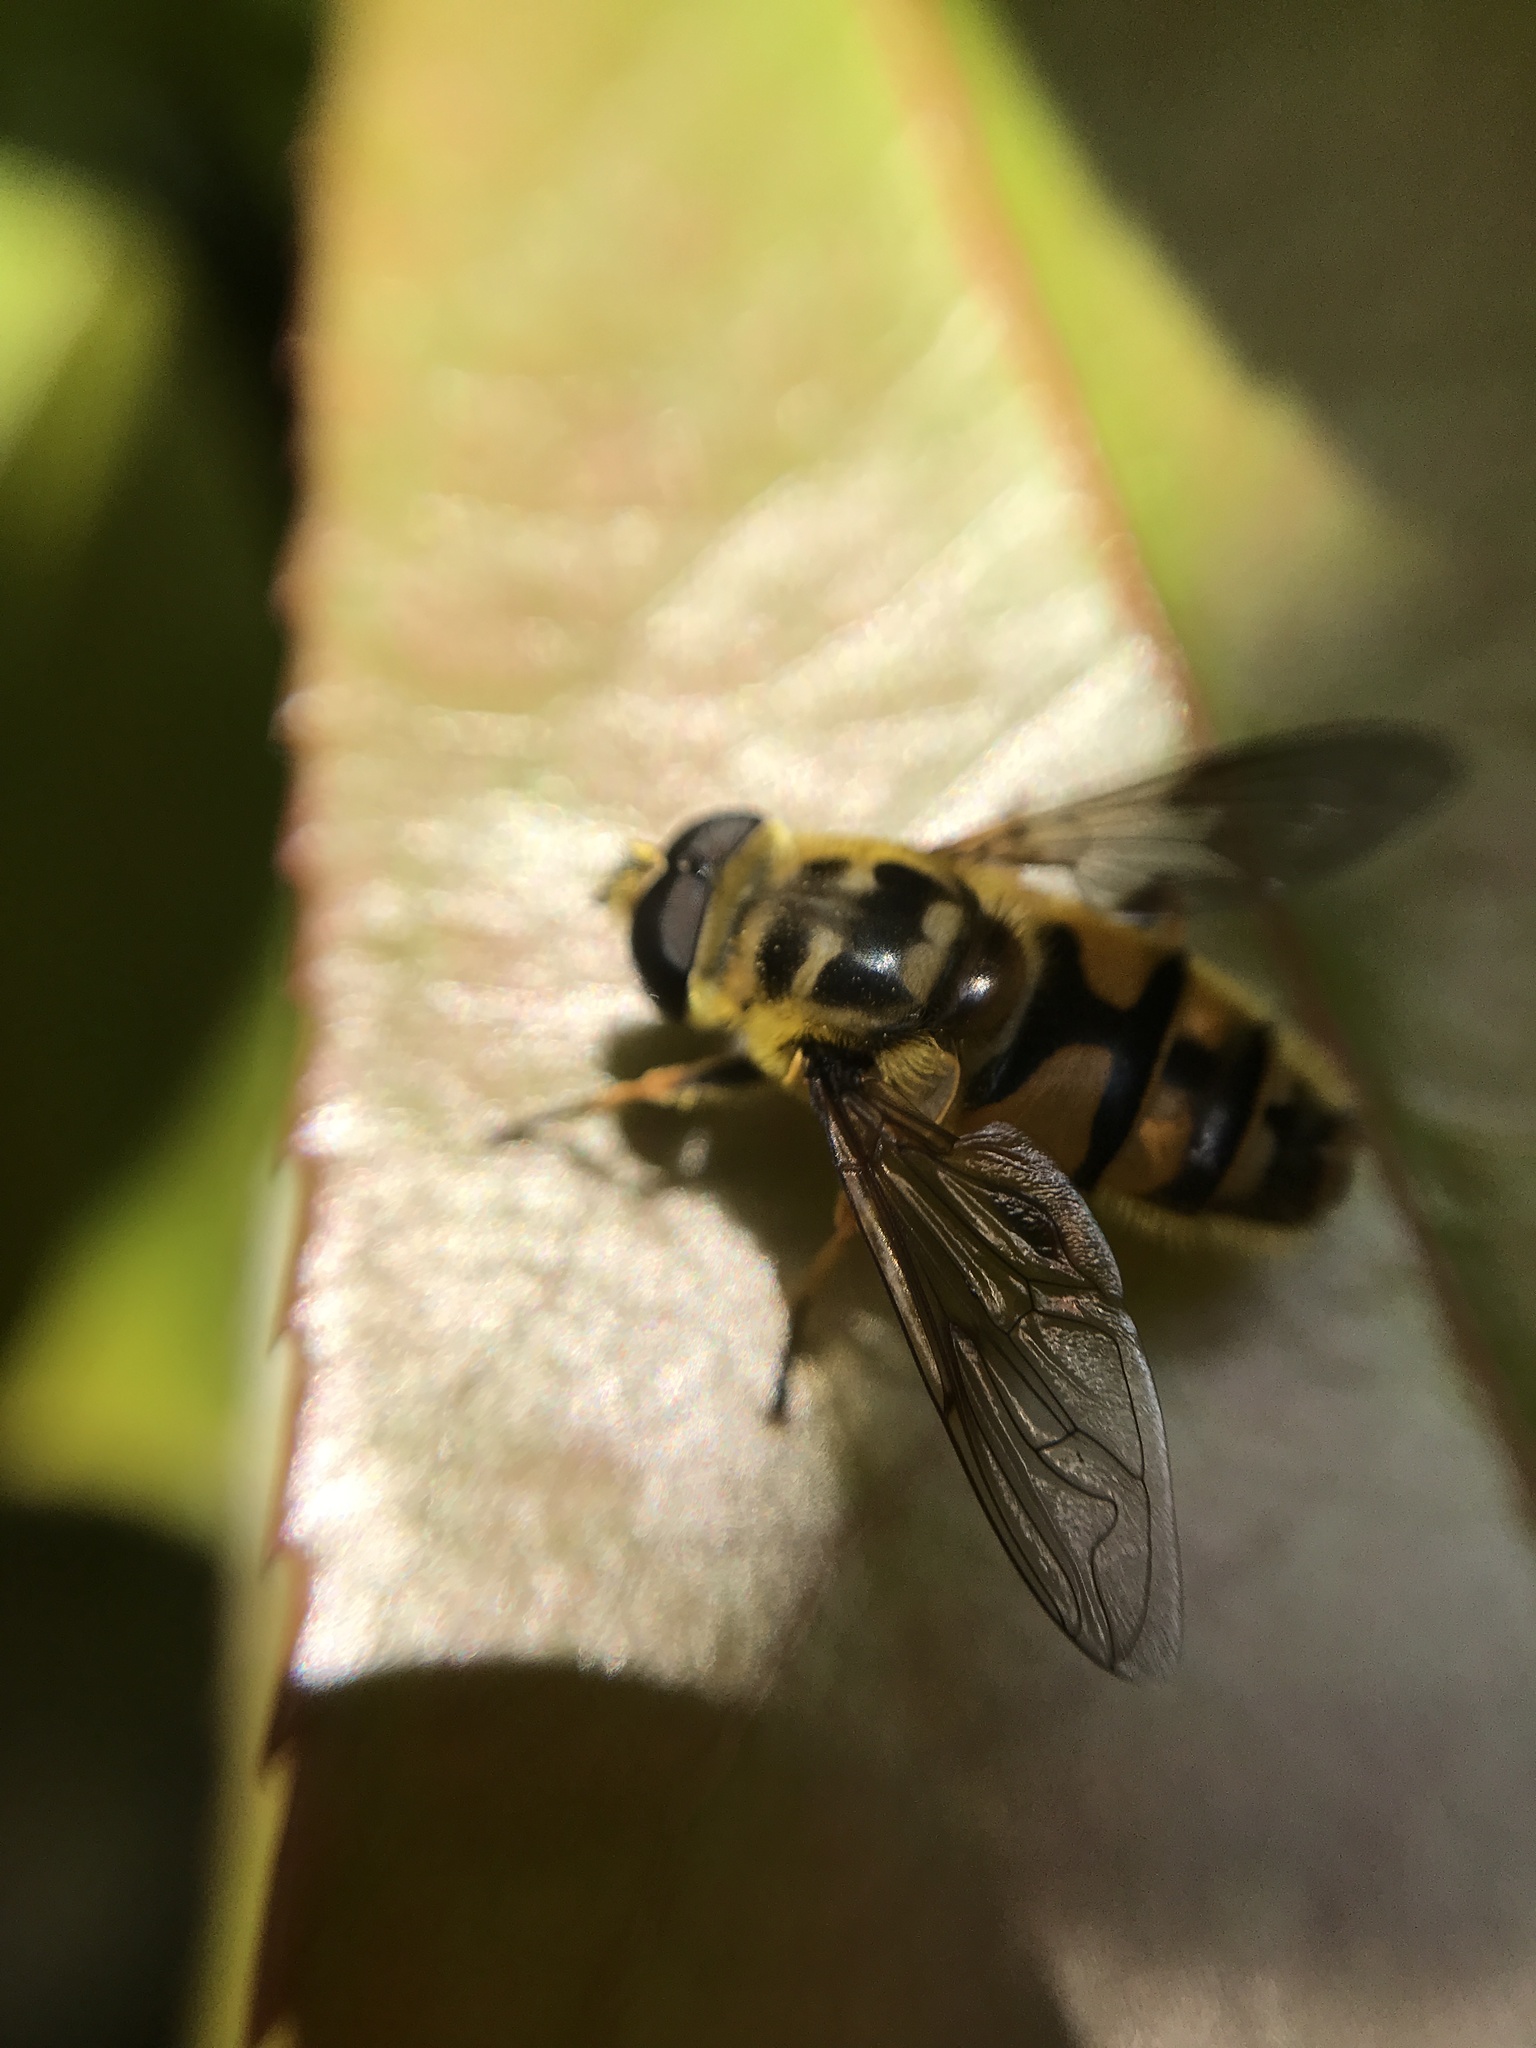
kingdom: Animalia
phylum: Arthropoda
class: Insecta
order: Diptera
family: Syrphidae
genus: Myathropa
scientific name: Myathropa florea
